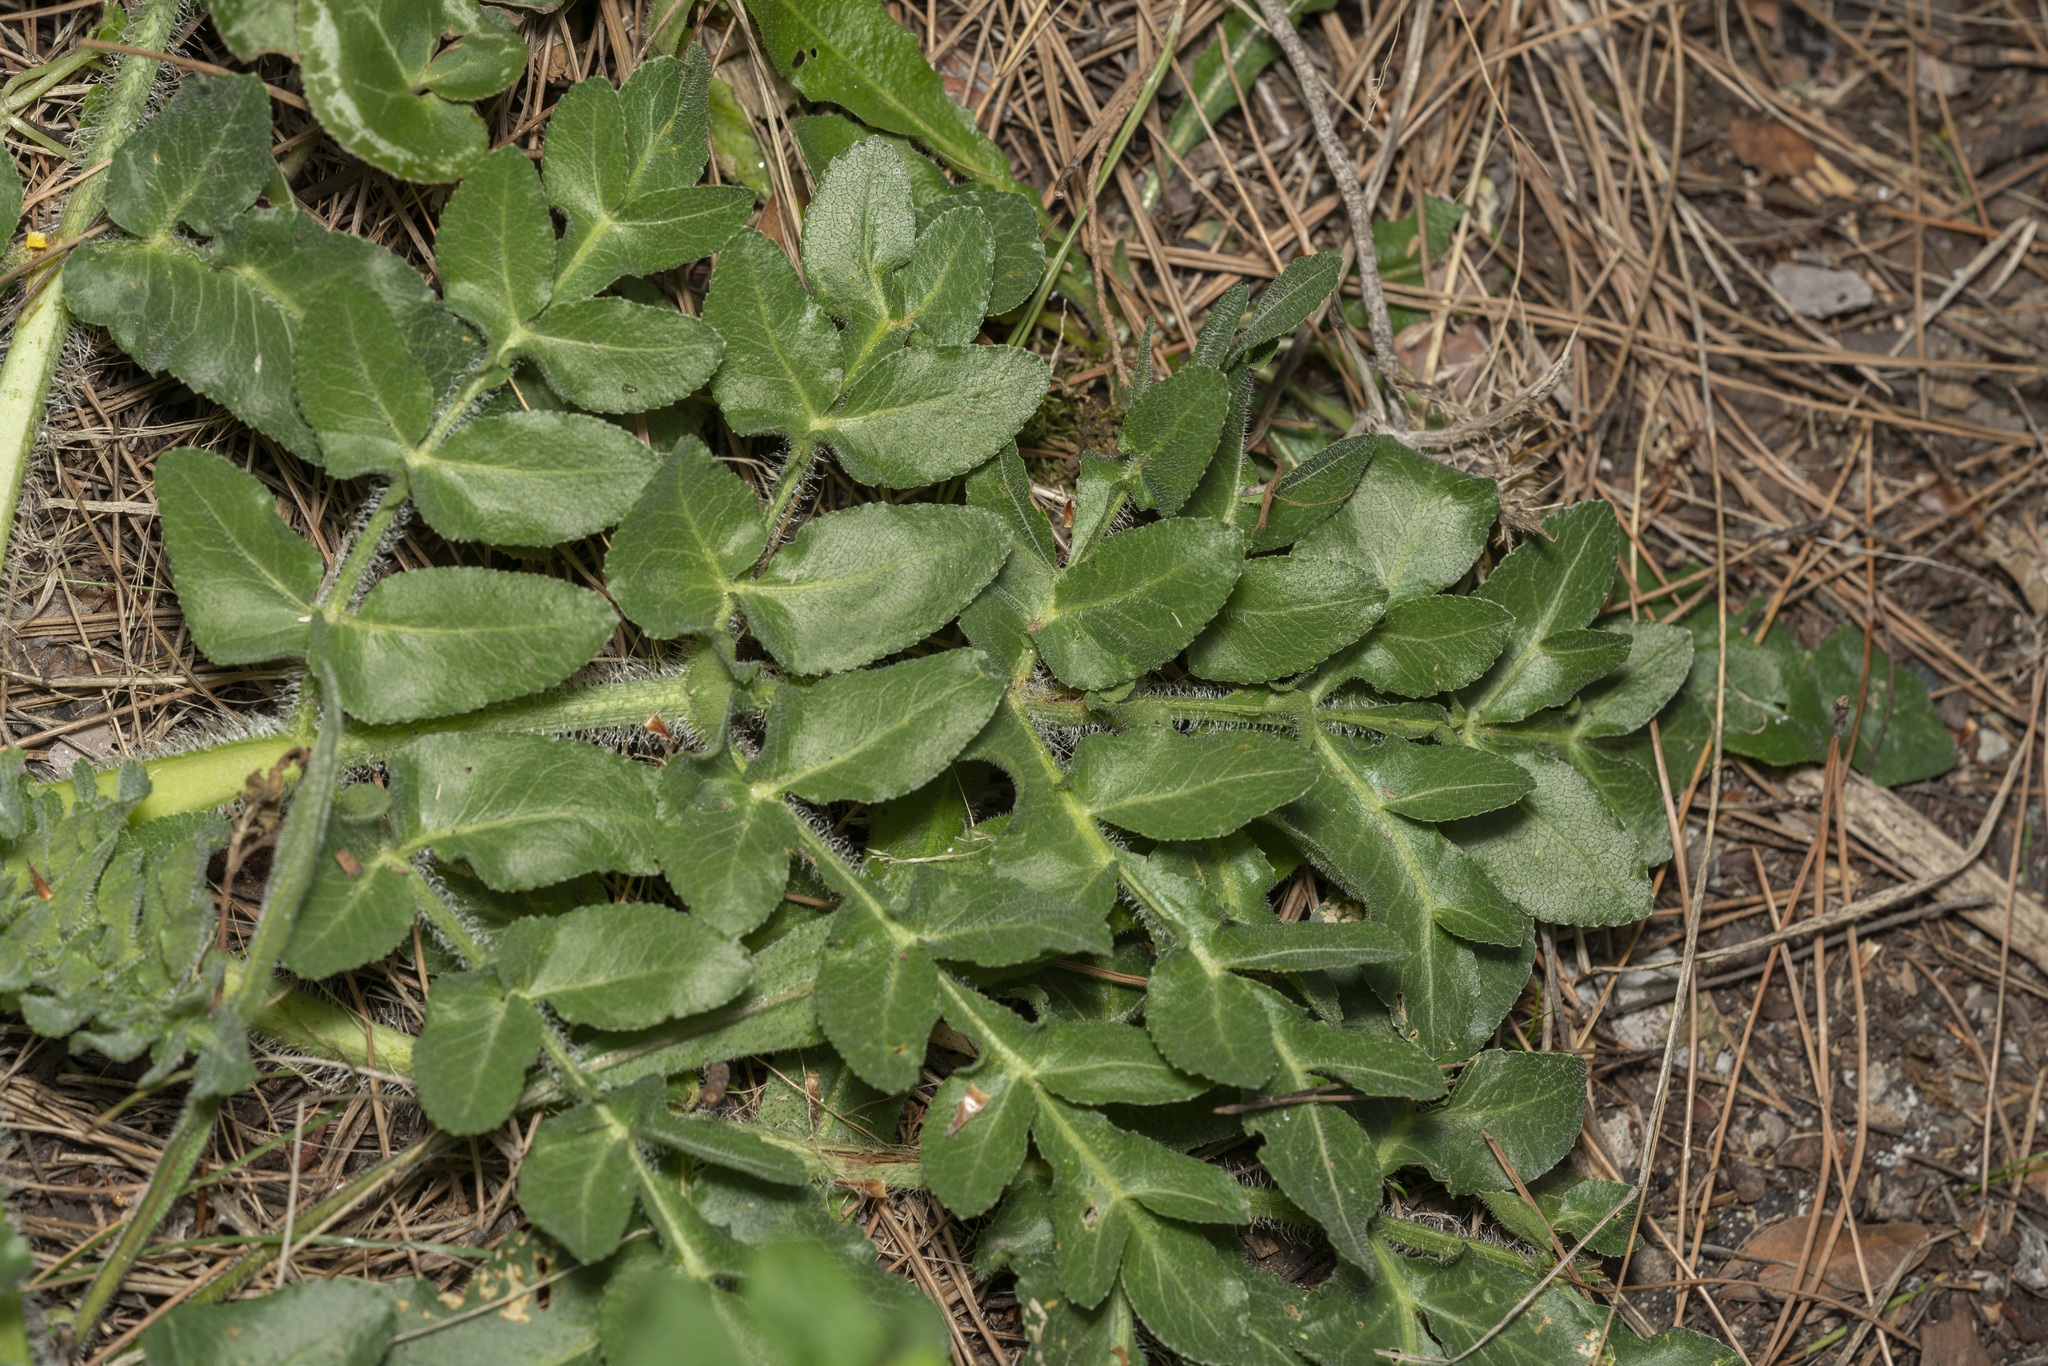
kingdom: Plantae
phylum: Tracheophyta
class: Magnoliopsida
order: Apiales
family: Apiaceae
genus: Opopanax
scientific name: Opopanax hispidus
